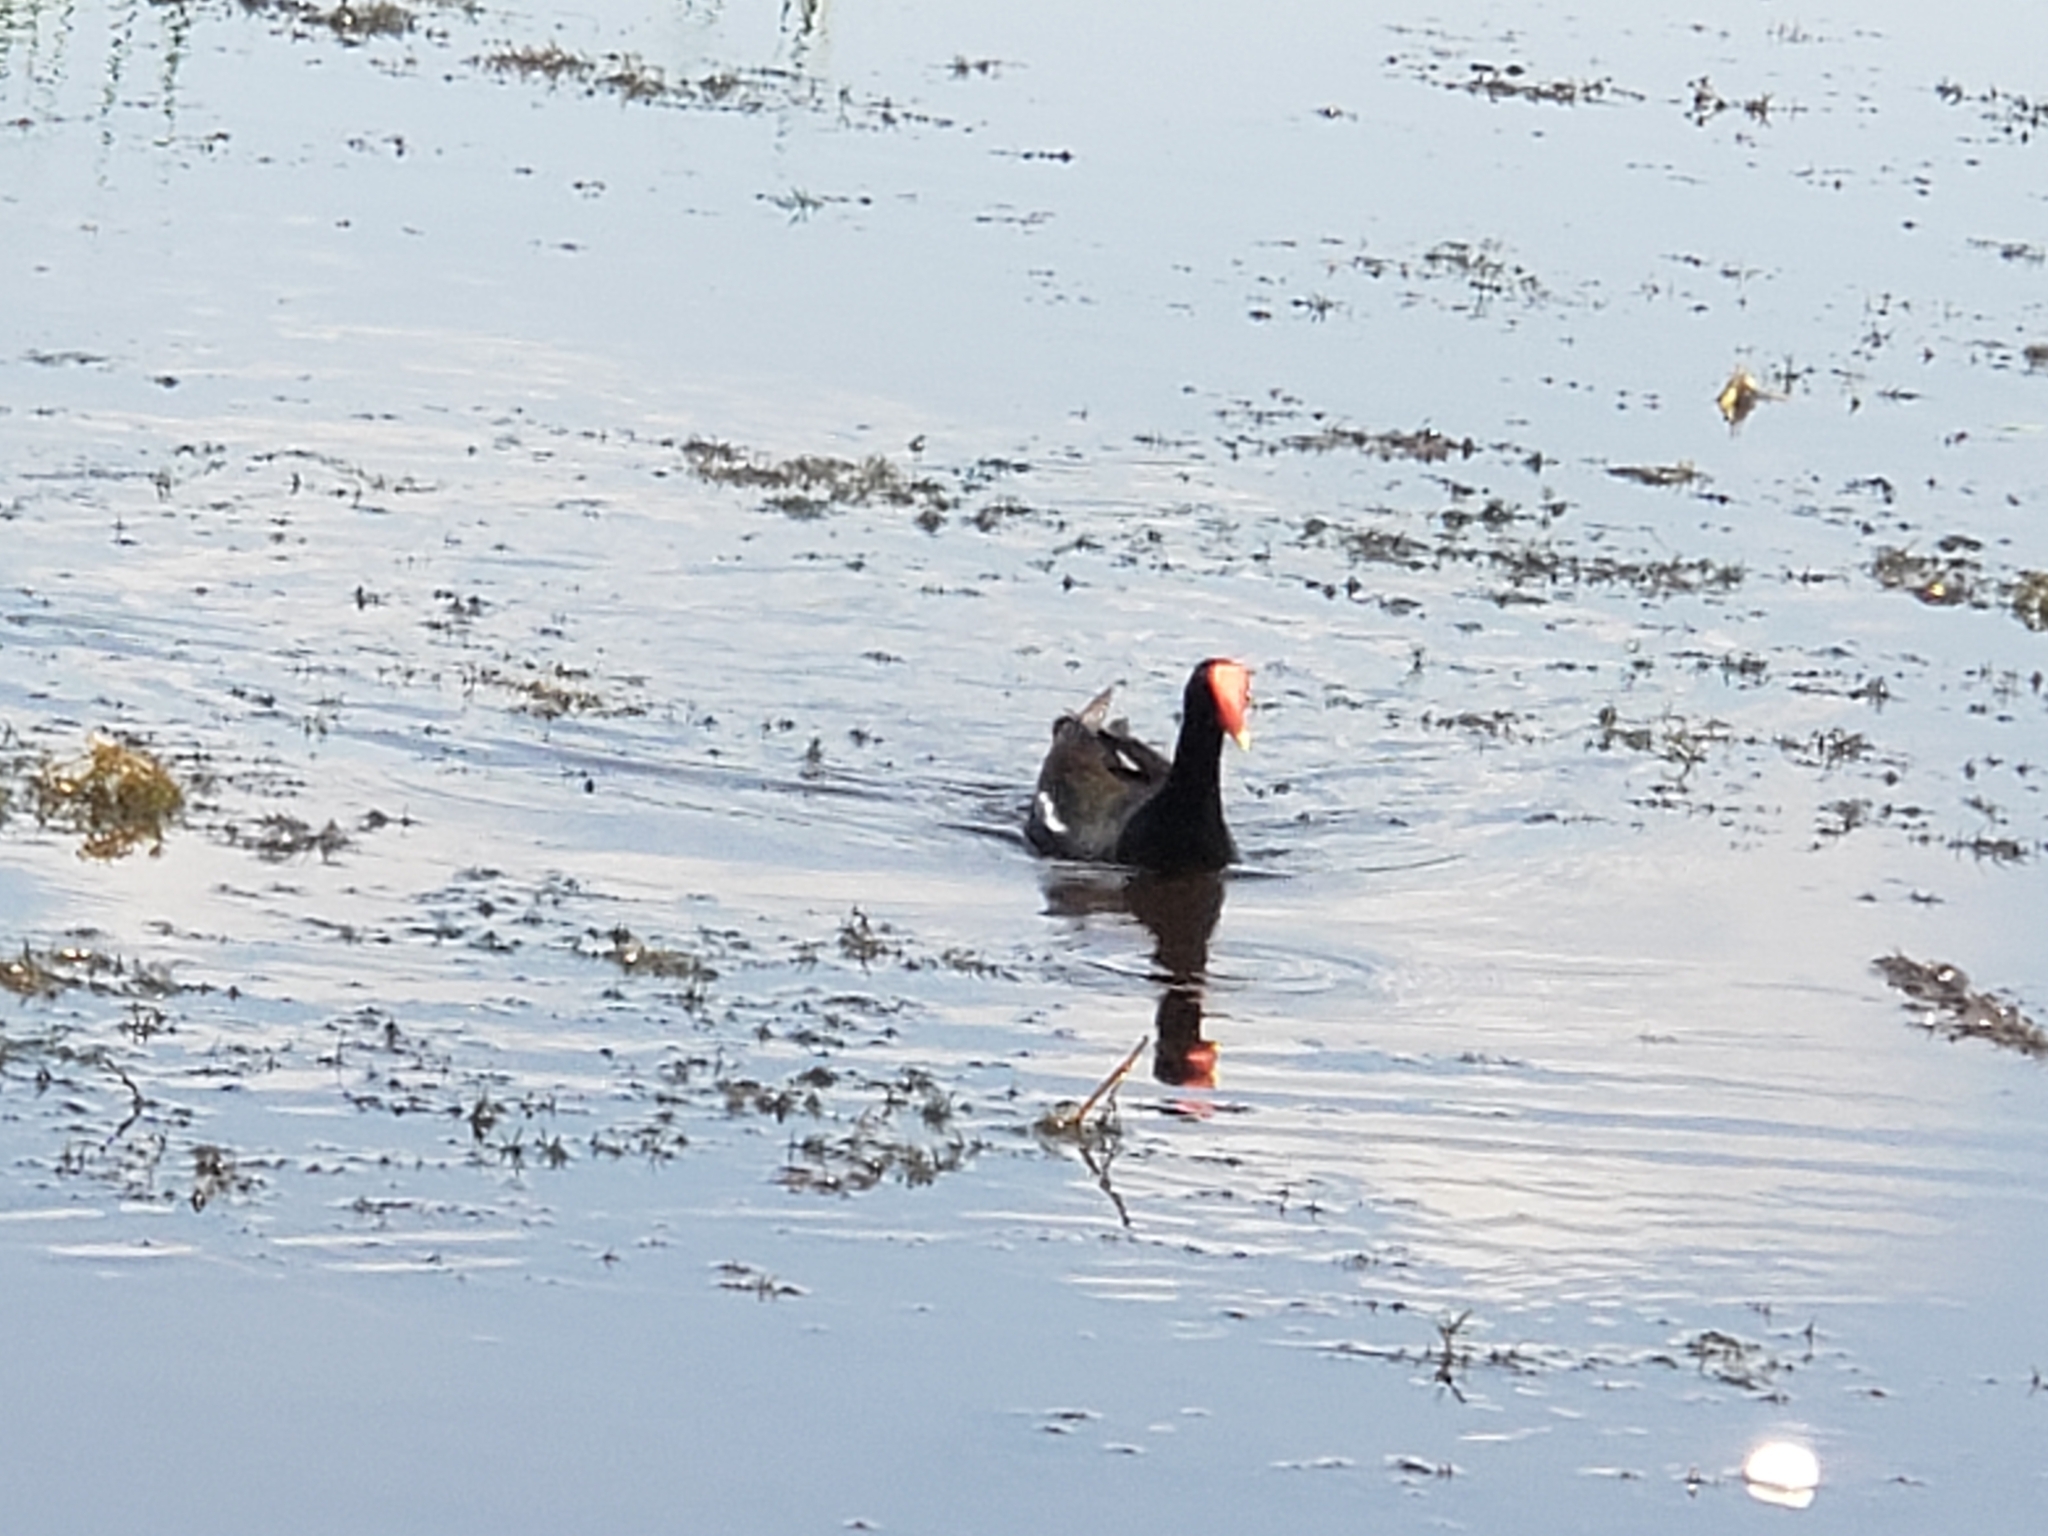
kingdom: Animalia
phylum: Chordata
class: Aves
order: Gruiformes
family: Rallidae
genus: Gallinula
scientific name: Gallinula chloropus
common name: Common moorhen
